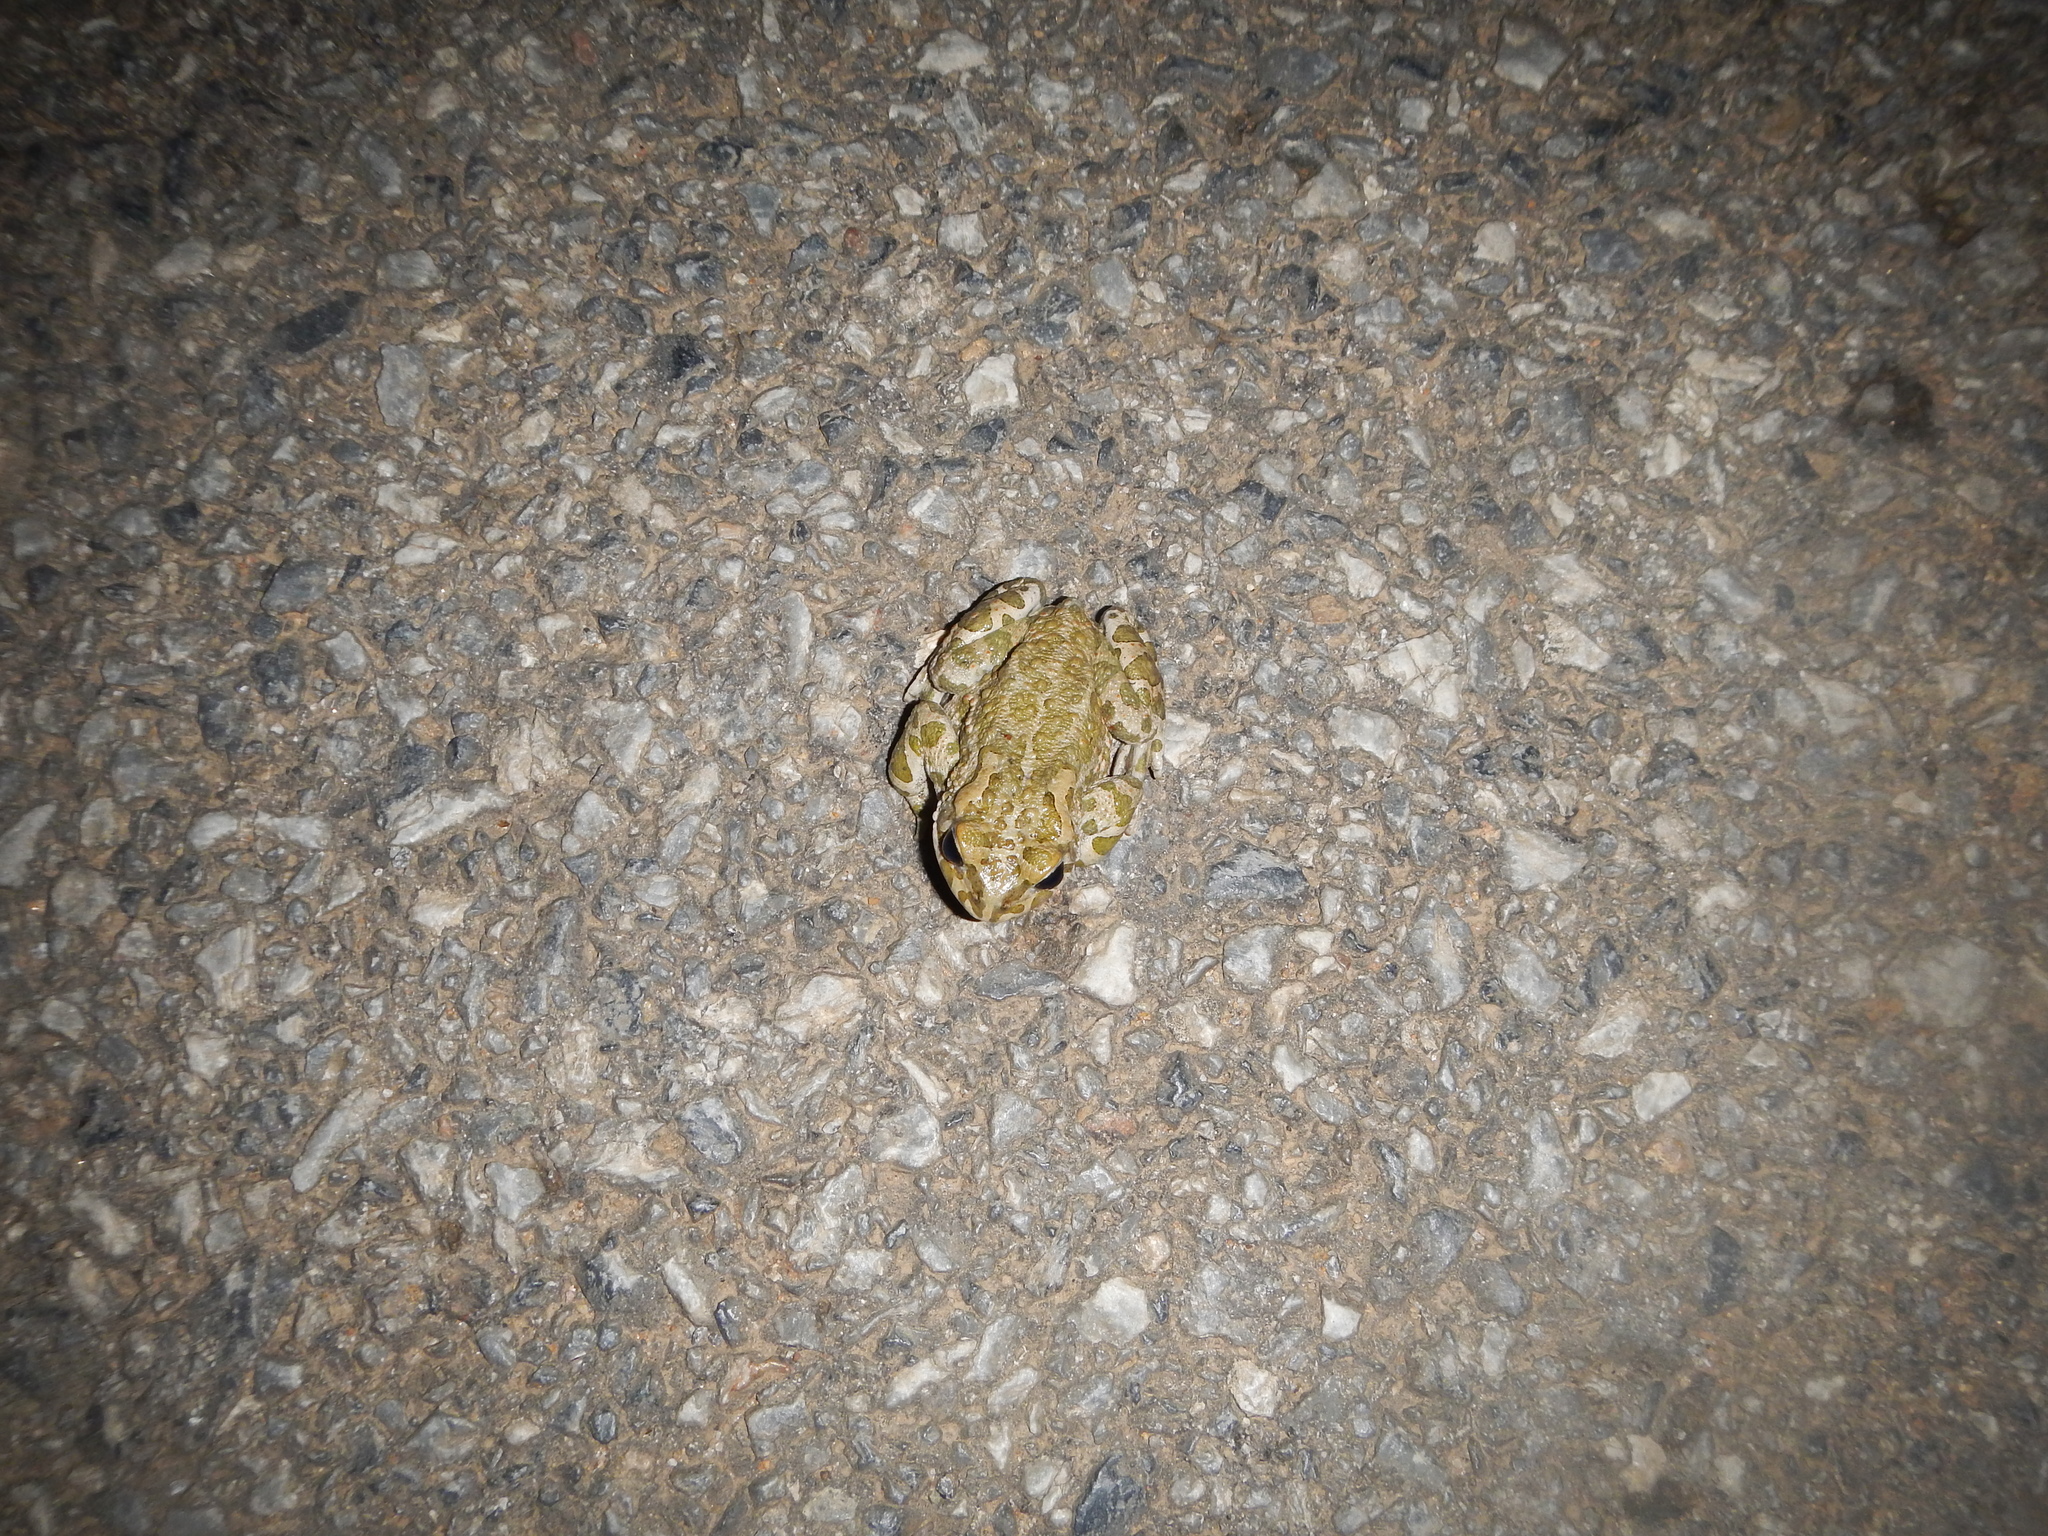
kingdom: Animalia
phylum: Chordata
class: Amphibia
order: Anura
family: Bufonidae
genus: Bufotes
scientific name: Bufotes viridis
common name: European green toad
